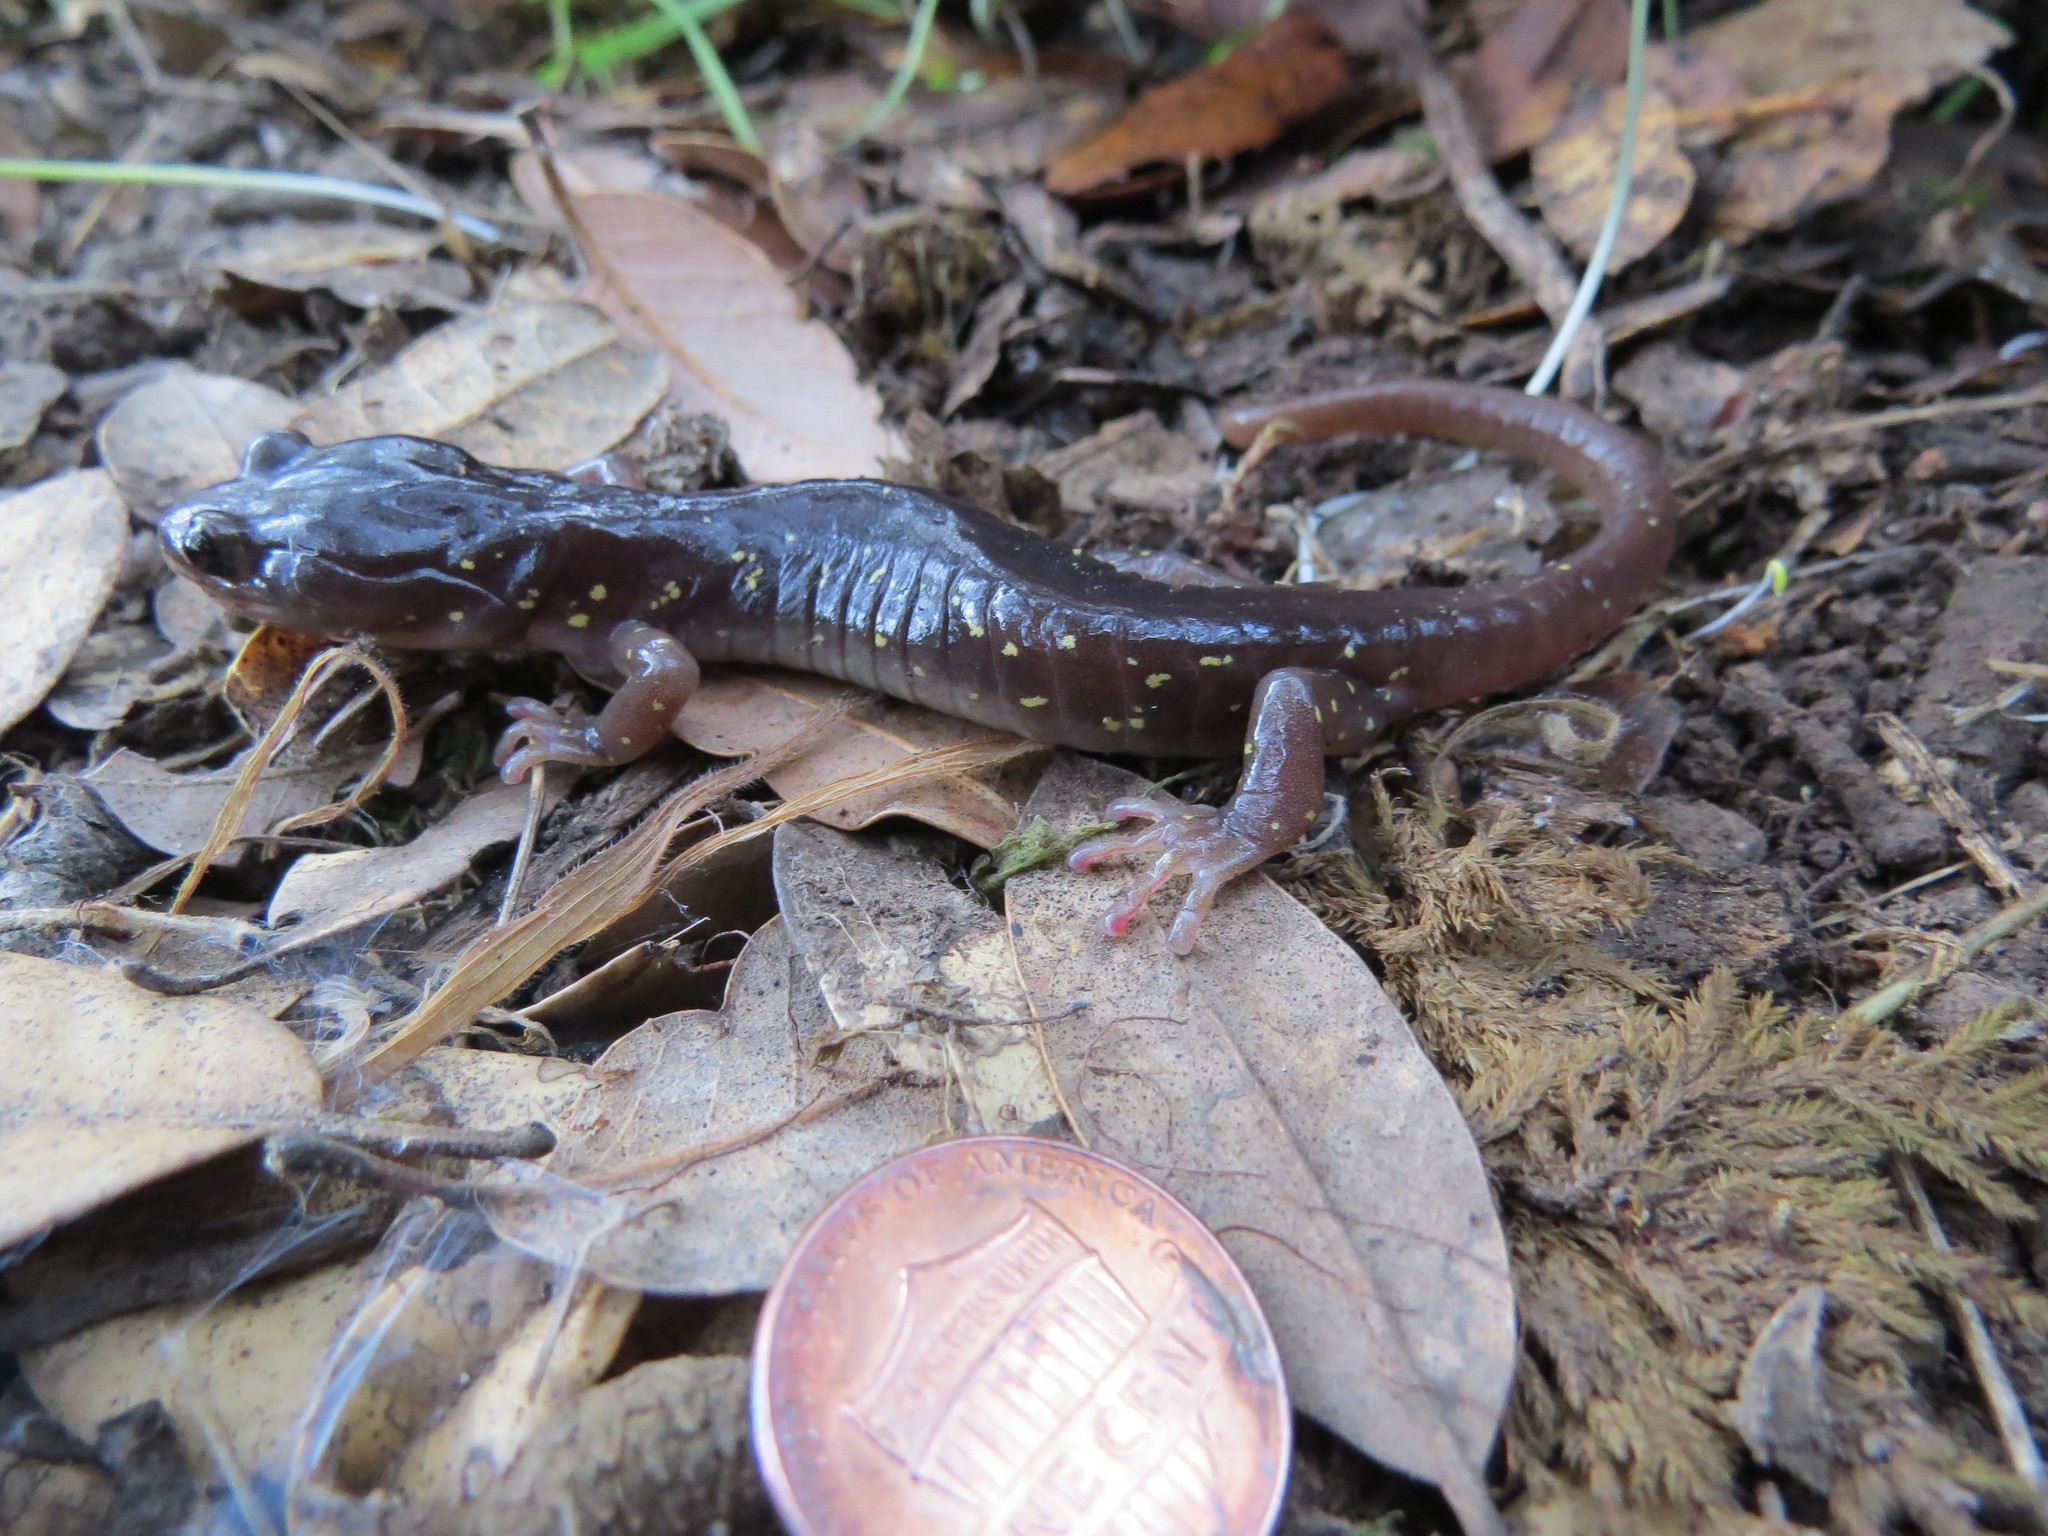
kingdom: Animalia
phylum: Chordata
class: Amphibia
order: Caudata
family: Plethodontidae
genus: Aneides
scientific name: Aneides lugubris
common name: Arboreal salamander
